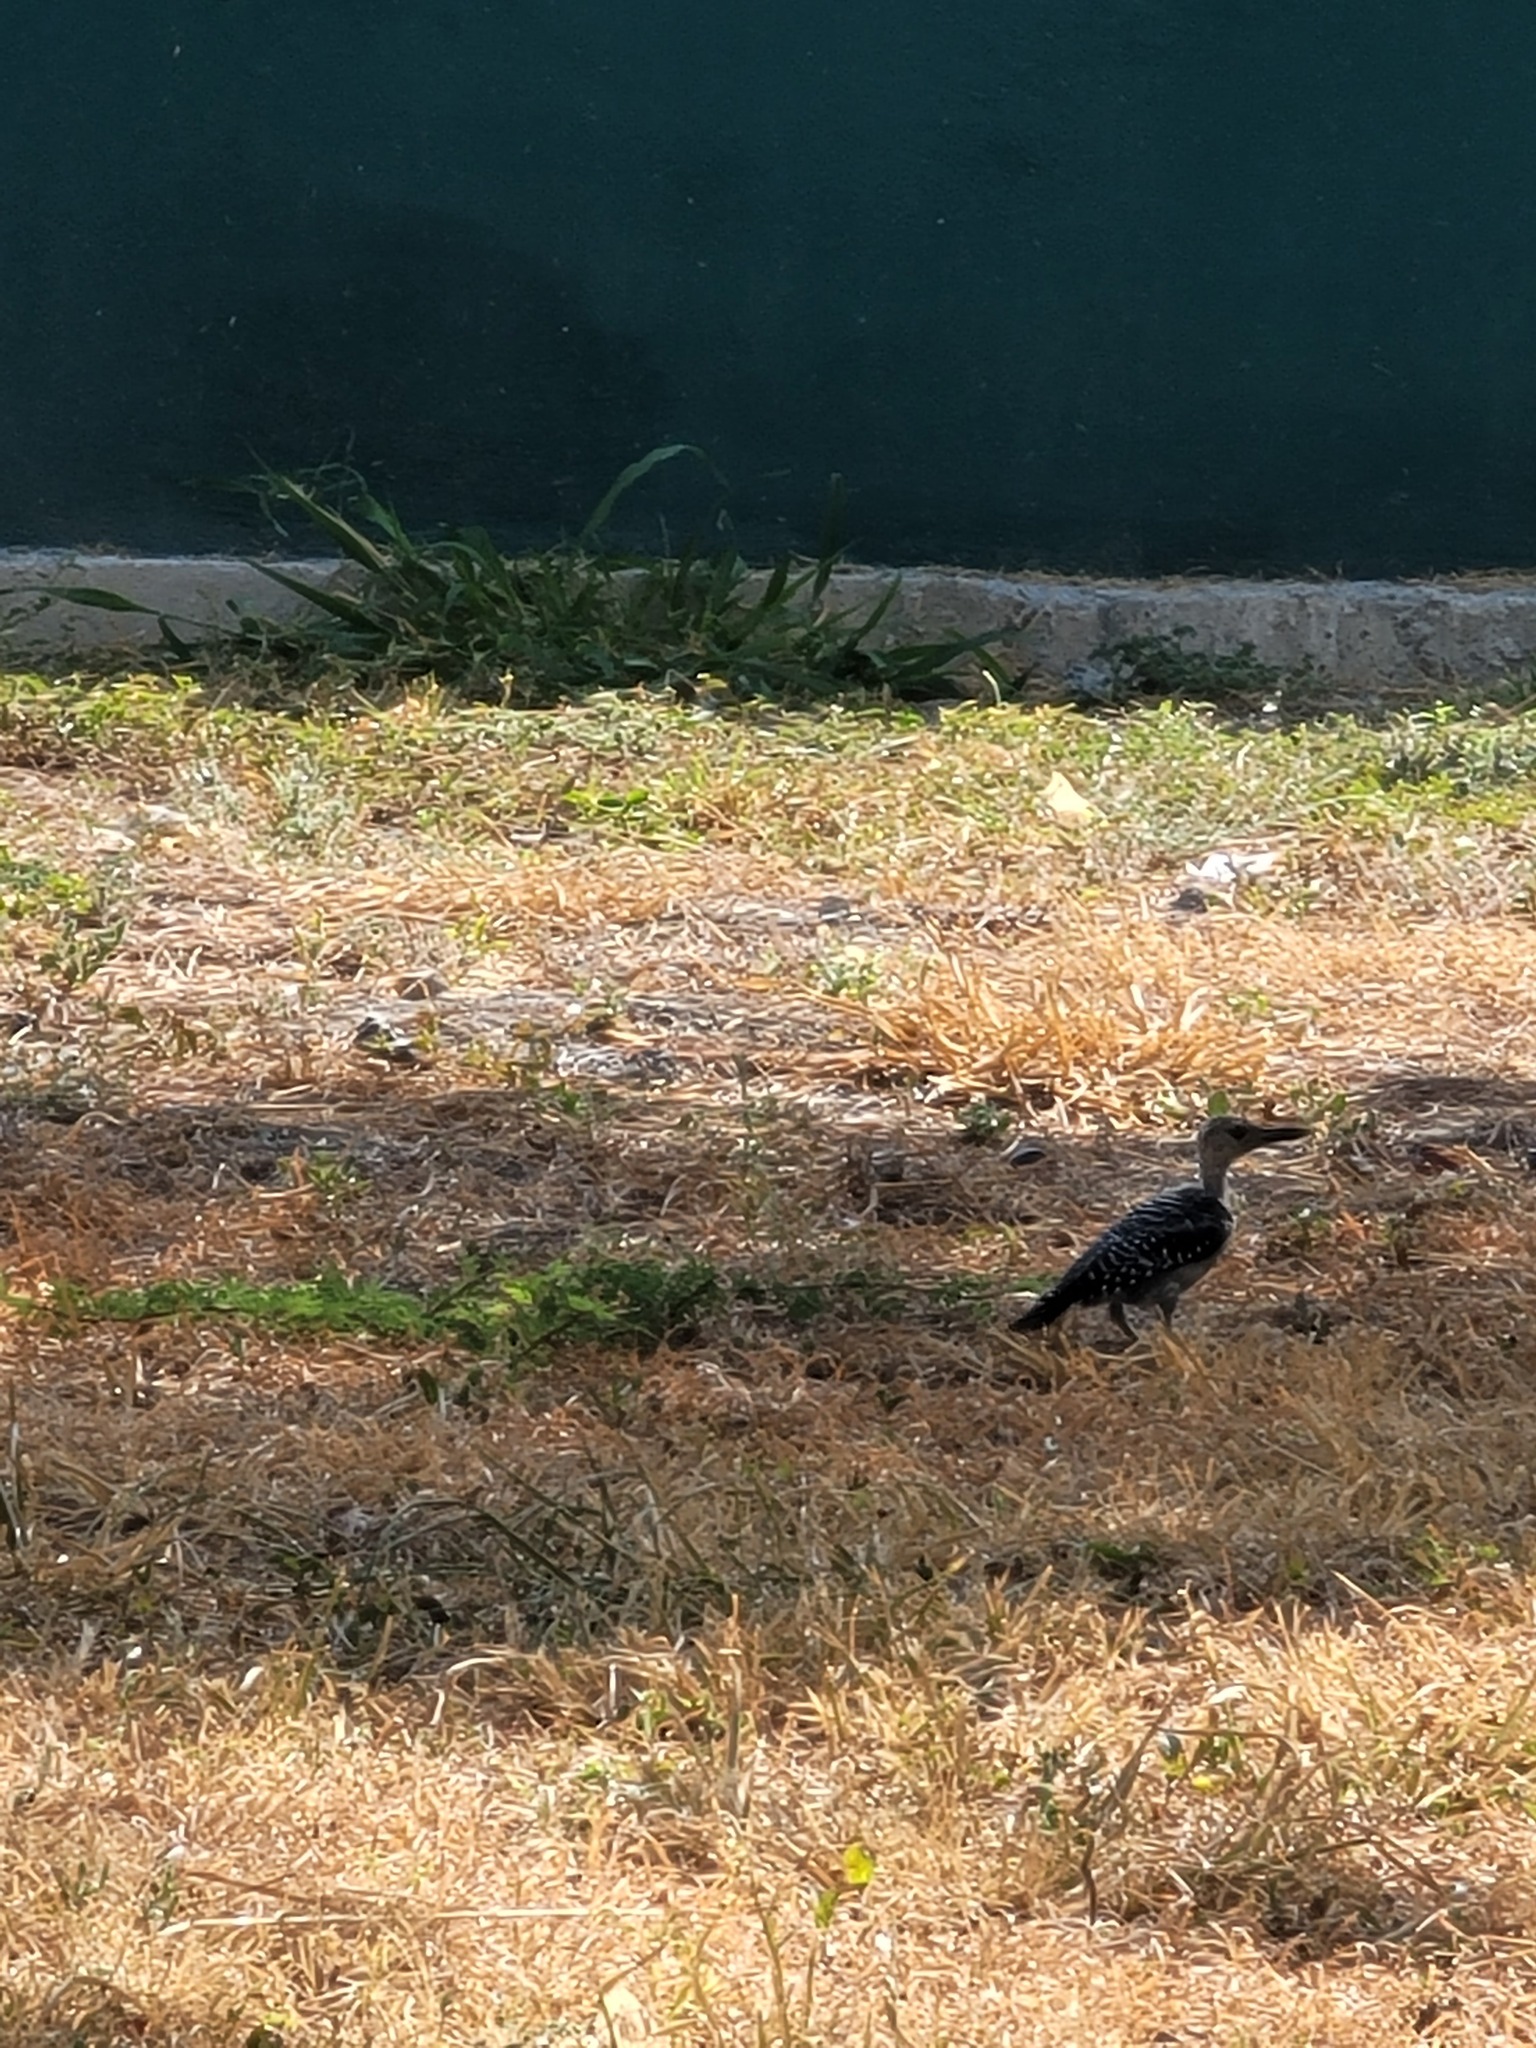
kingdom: Animalia
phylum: Chordata
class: Aves
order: Piciformes
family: Picidae
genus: Melanerpes
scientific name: Melanerpes aurifrons
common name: Golden-fronted woodpecker
